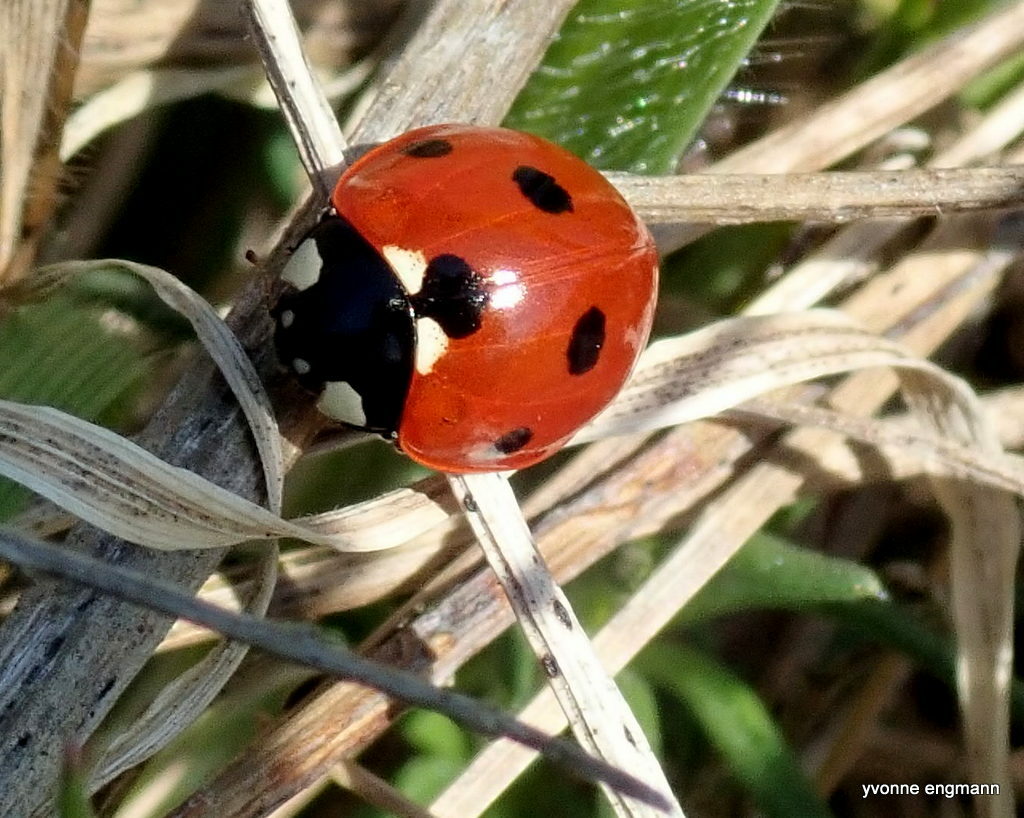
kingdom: Animalia
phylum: Arthropoda
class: Insecta
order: Coleoptera
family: Coccinellidae
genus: Coccinella
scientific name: Coccinella septempunctata
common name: Sevenspotted lady beetle
